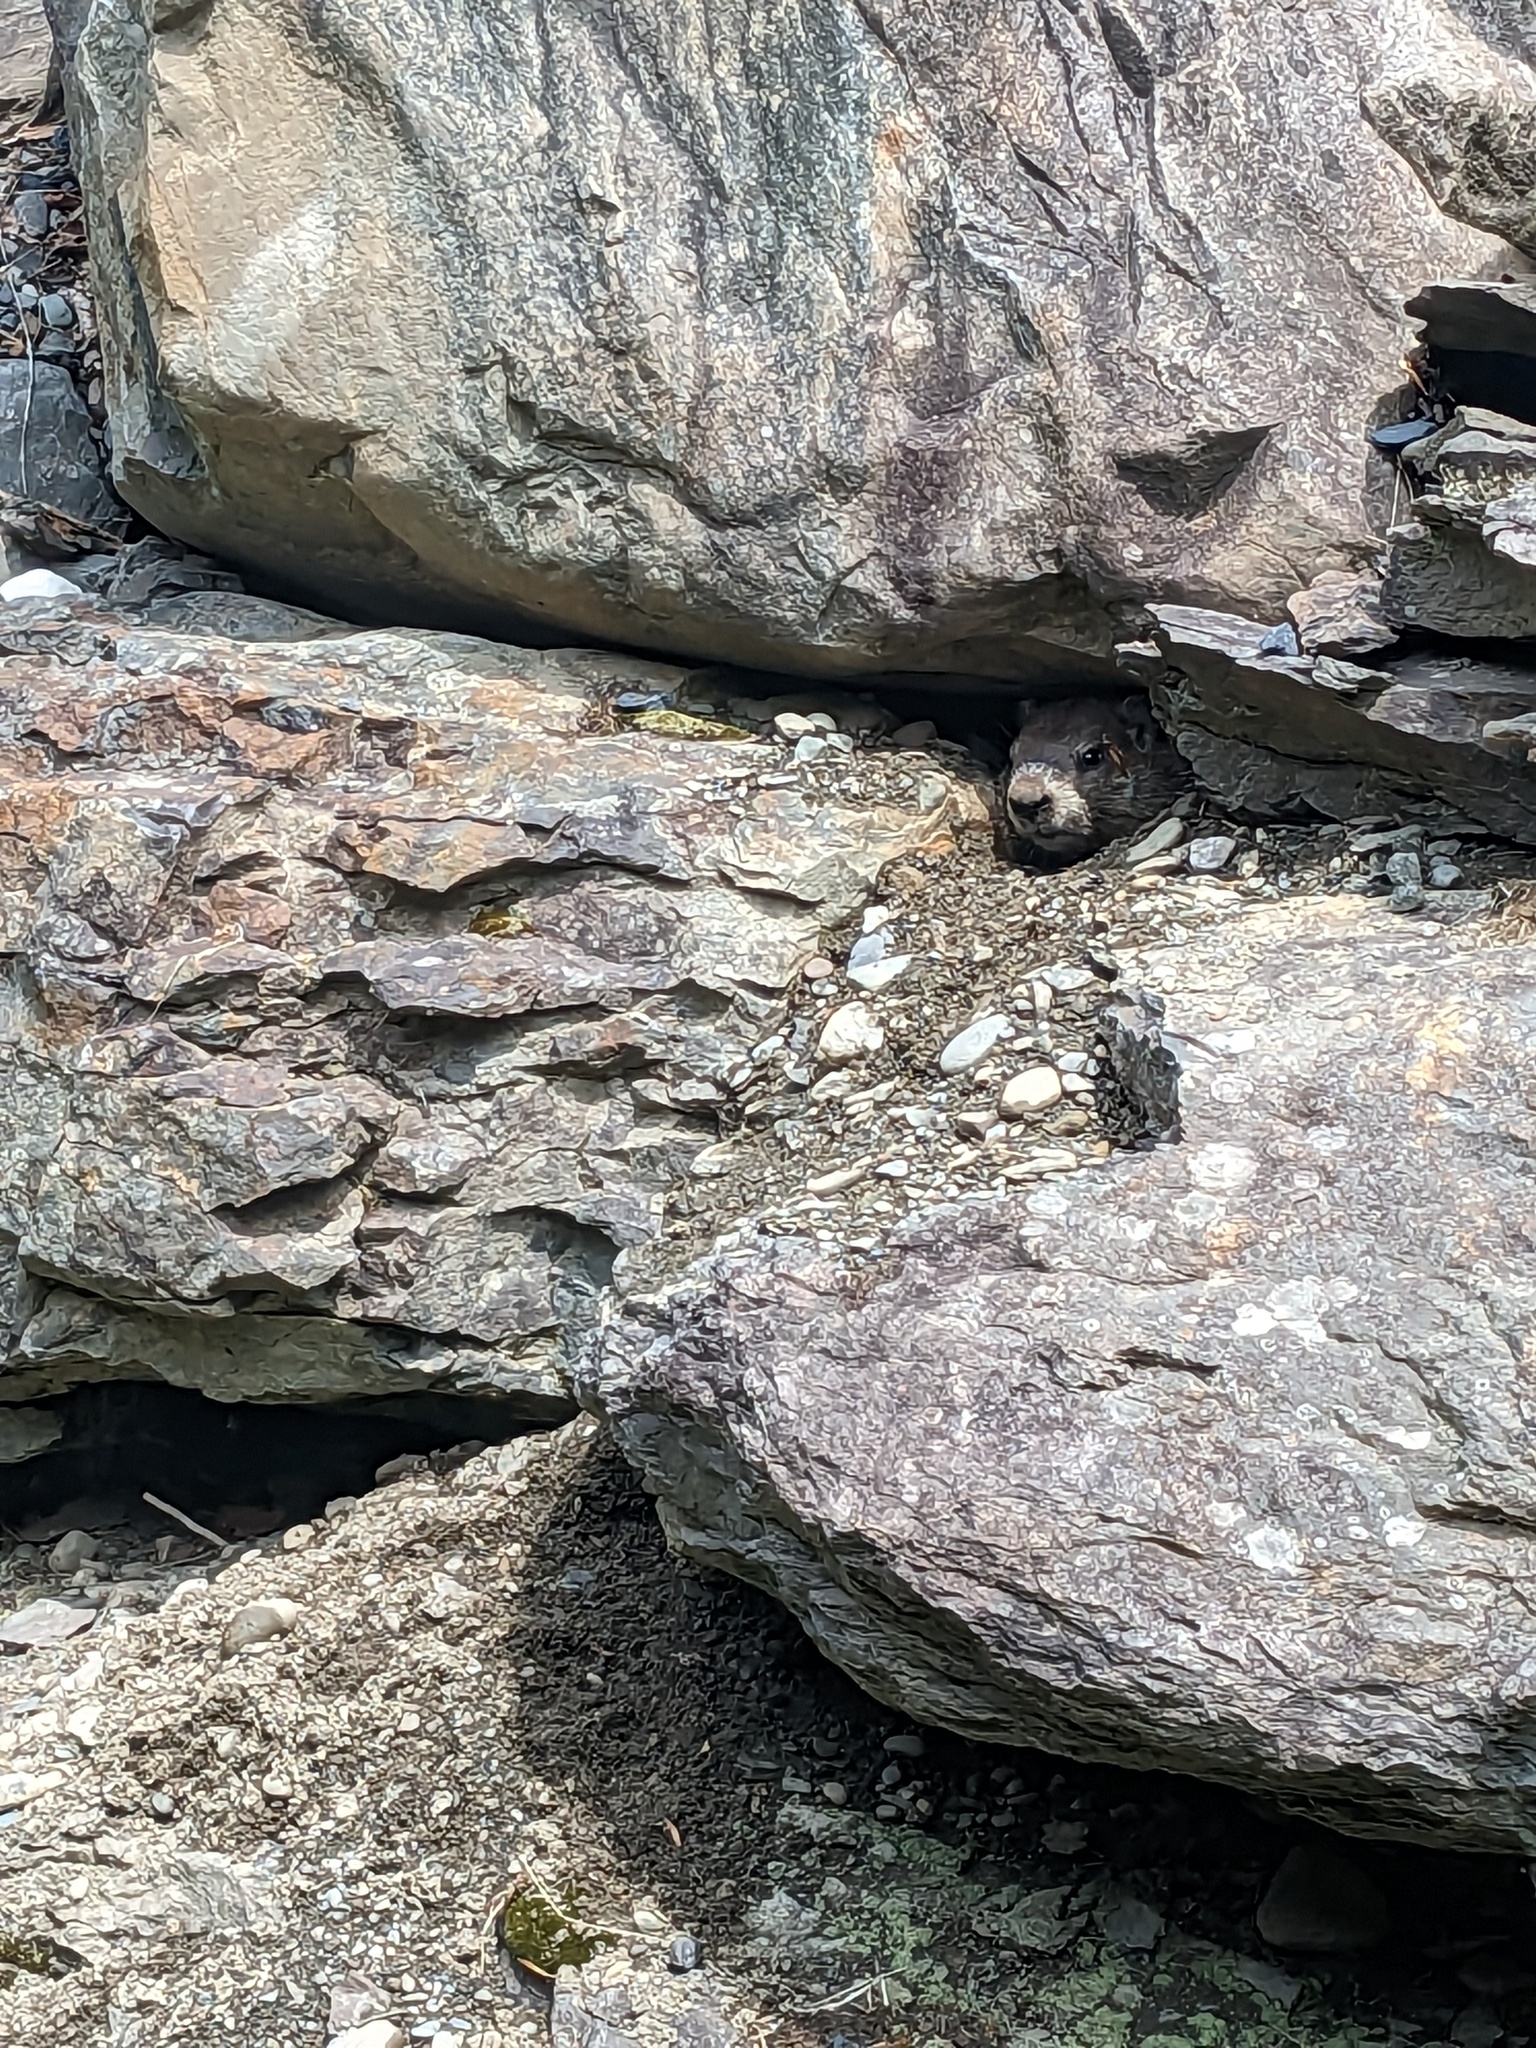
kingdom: Animalia
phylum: Chordata
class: Mammalia
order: Rodentia
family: Sciuridae
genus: Marmota
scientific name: Marmota monax
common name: Groundhog
